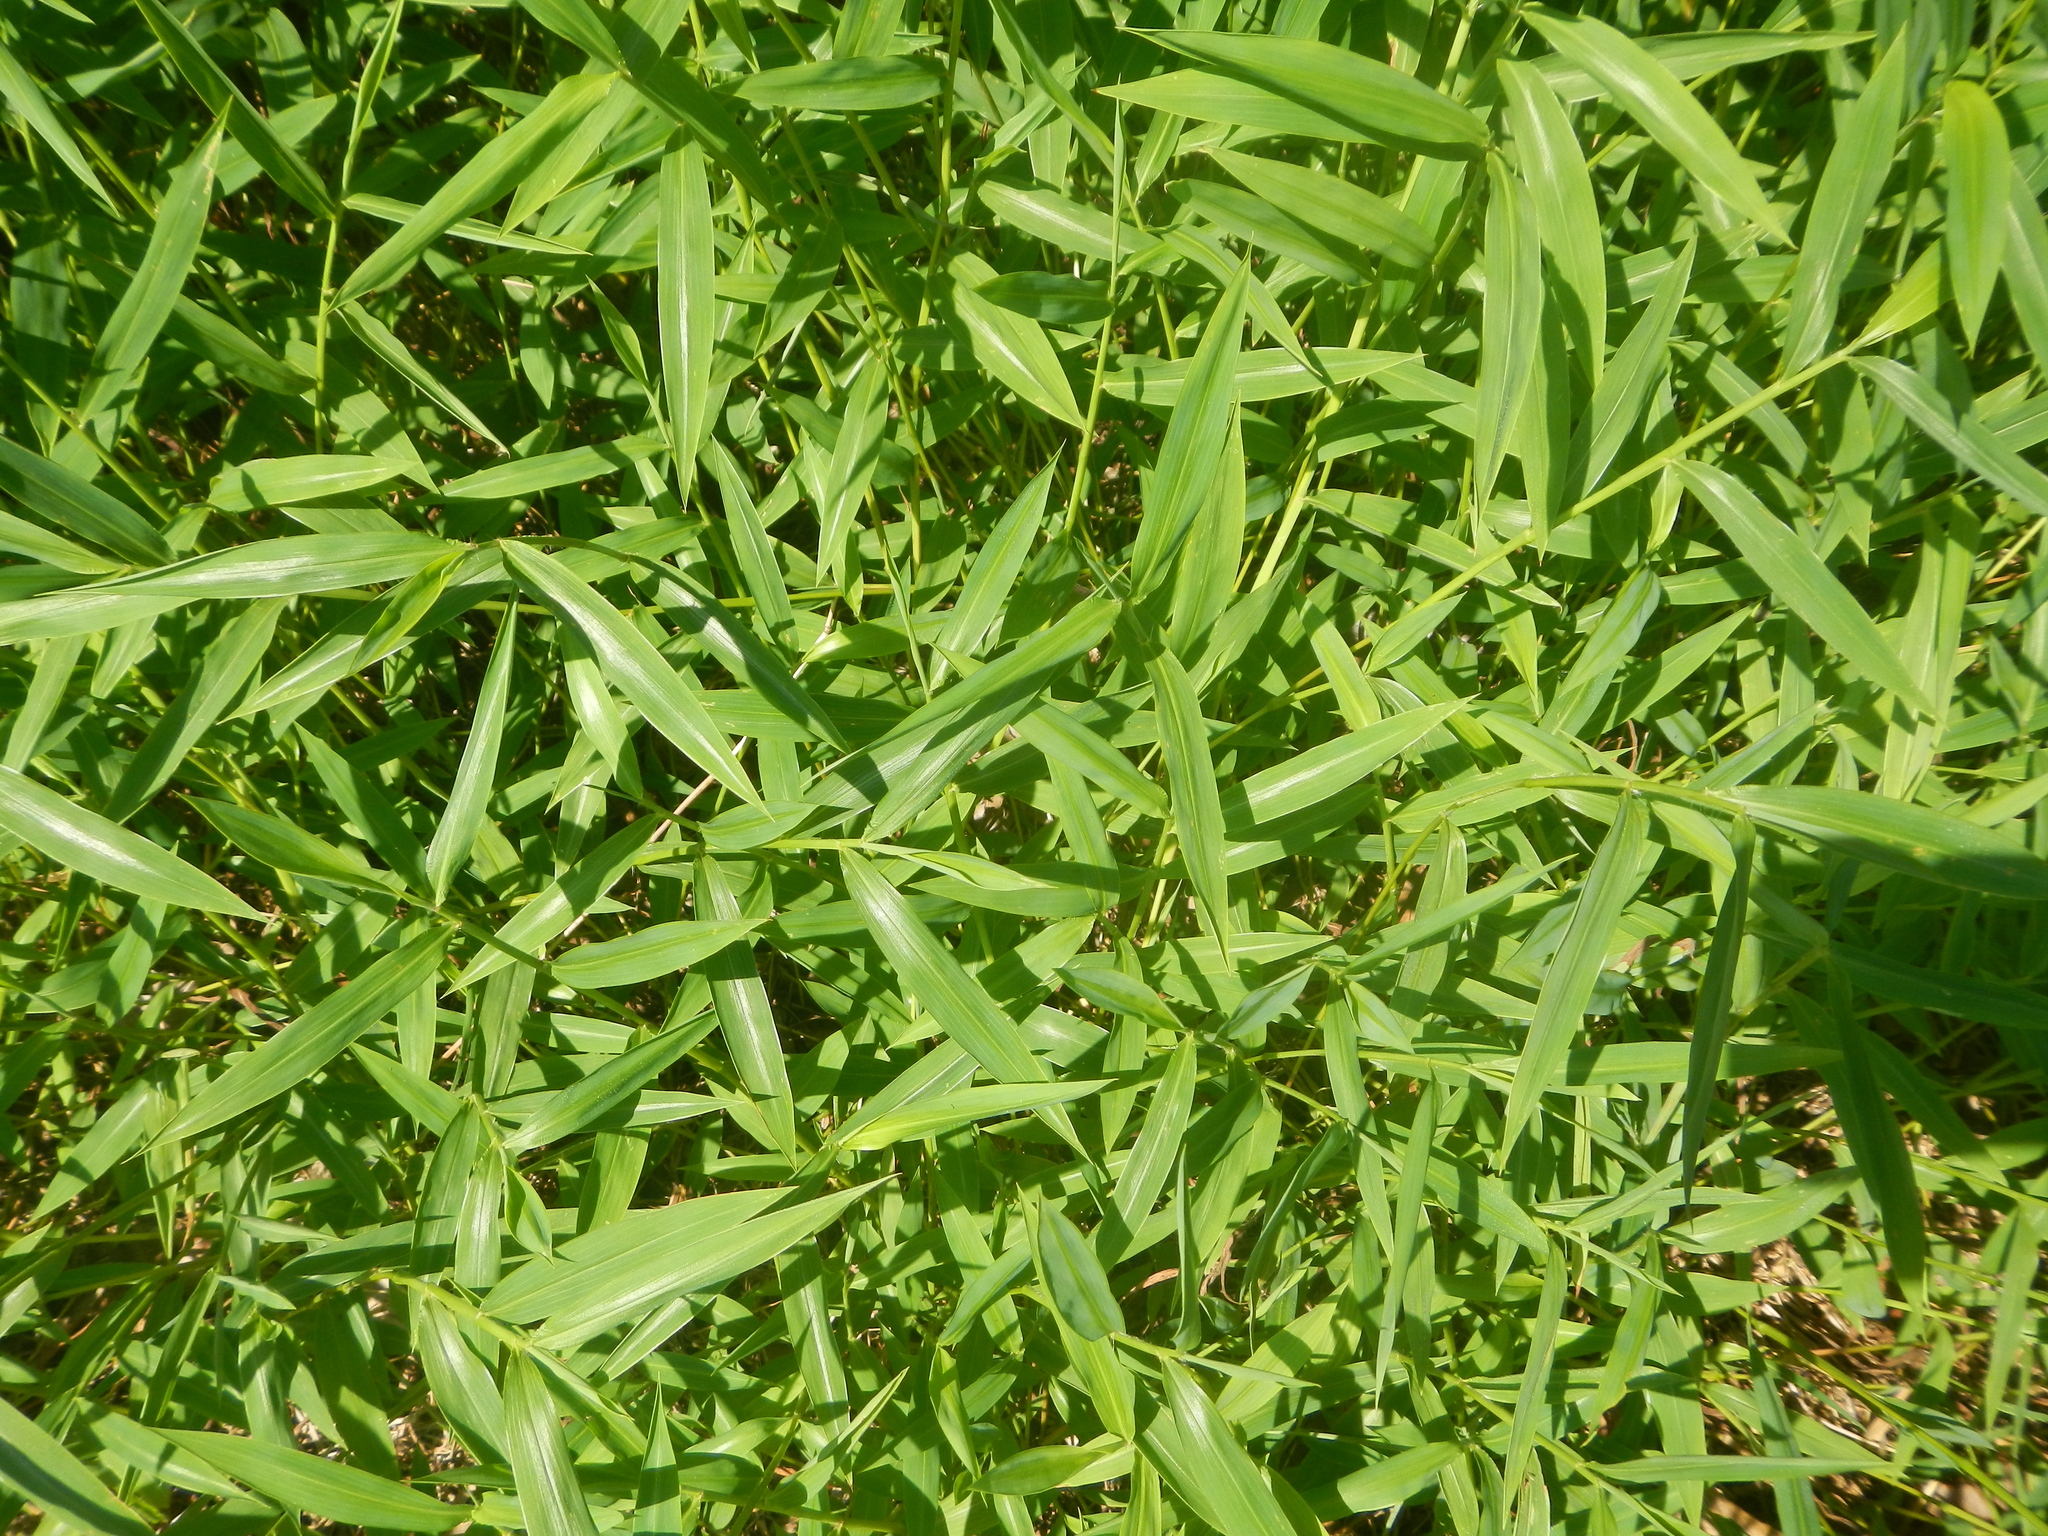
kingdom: Plantae
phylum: Tracheophyta
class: Liliopsida
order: Poales
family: Poaceae
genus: Microstegium
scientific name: Microstegium vimineum
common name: Japanese stiltgrass
